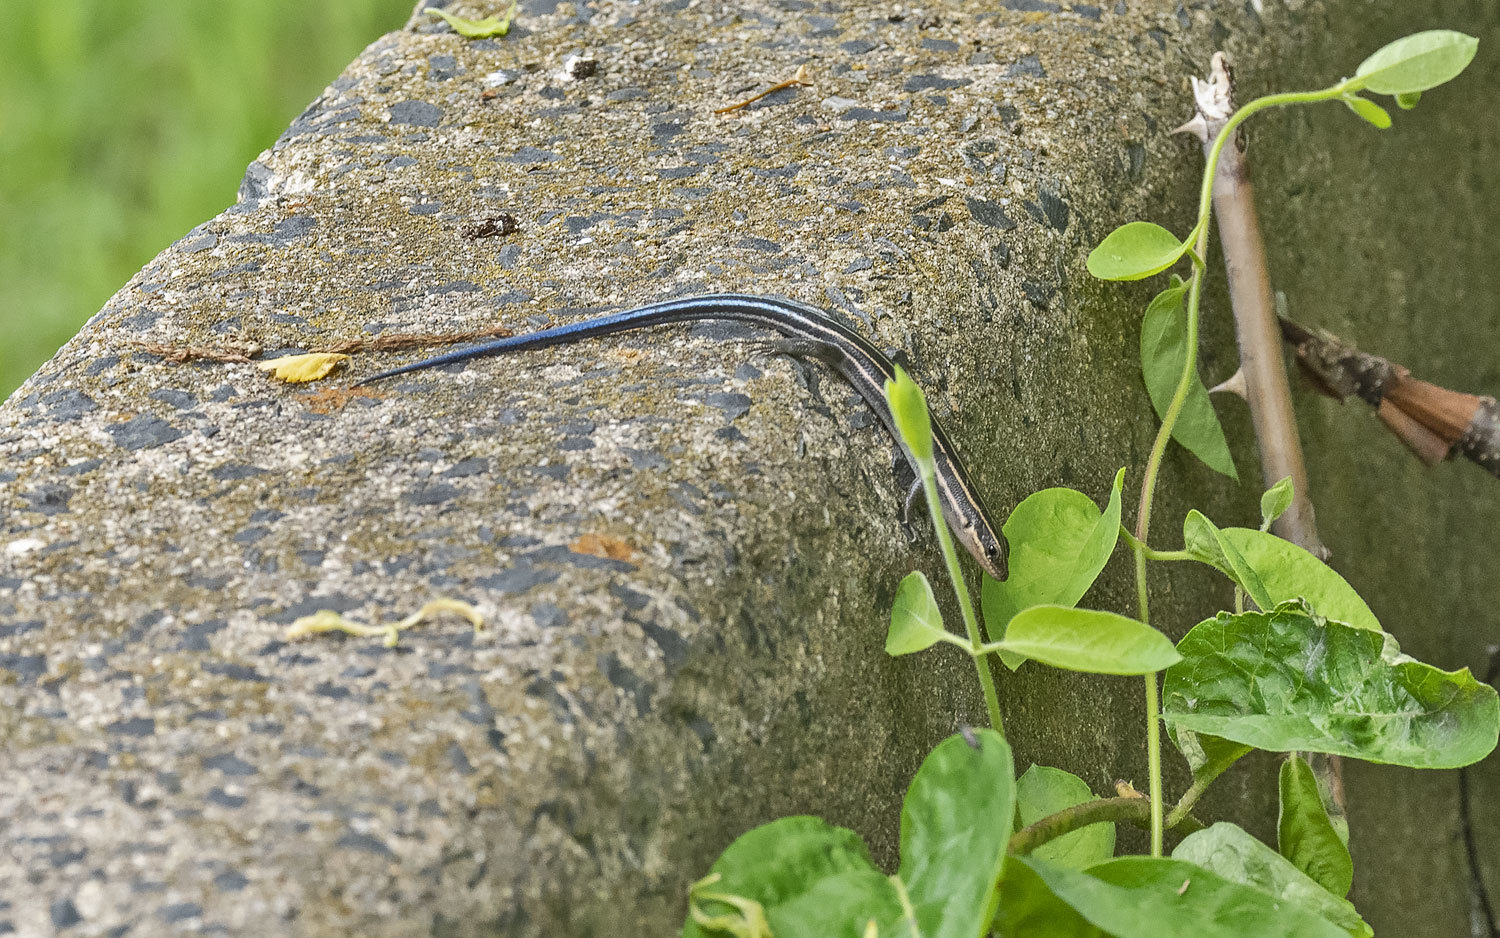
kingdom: Animalia
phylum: Chordata
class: Squamata
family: Scincidae
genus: Plestiodon
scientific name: Plestiodon fasciatus
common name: Five-lined skink
